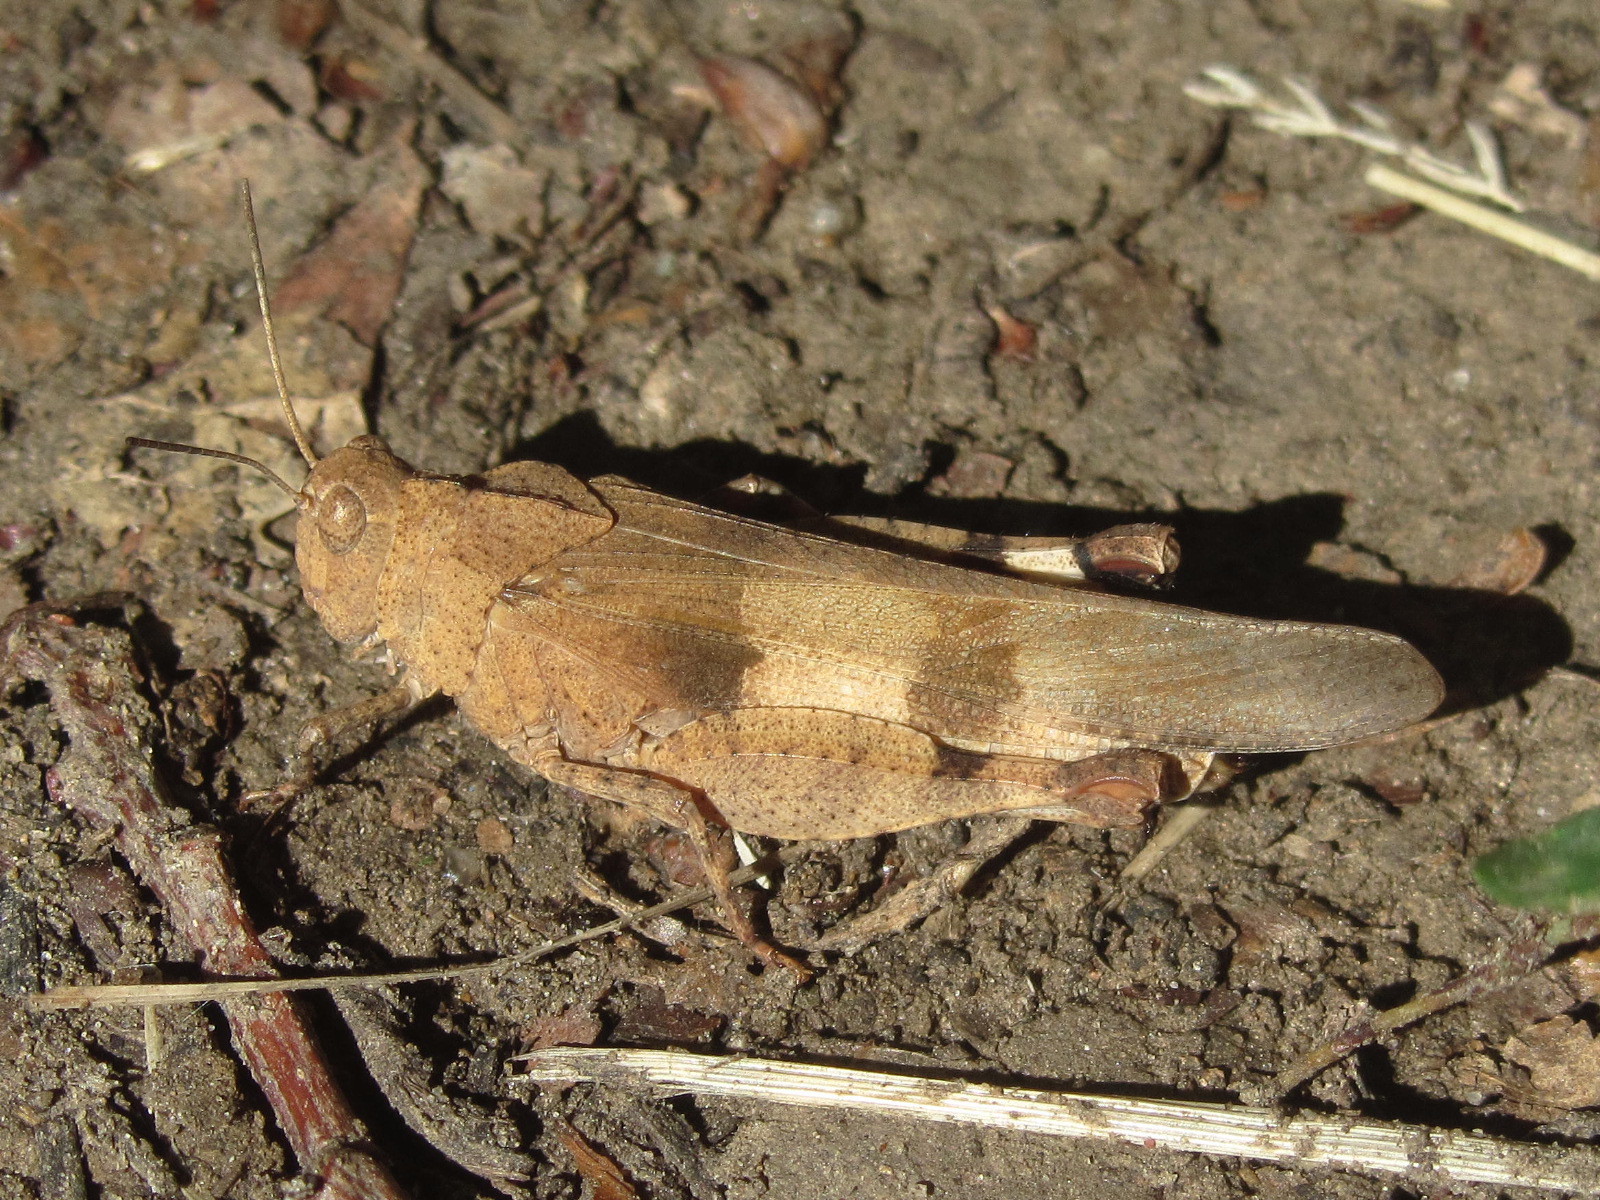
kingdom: Animalia
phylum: Arthropoda
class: Insecta
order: Orthoptera
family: Acrididae
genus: Oedipoda
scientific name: Oedipoda caerulescens
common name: Blue-winged grasshopper
